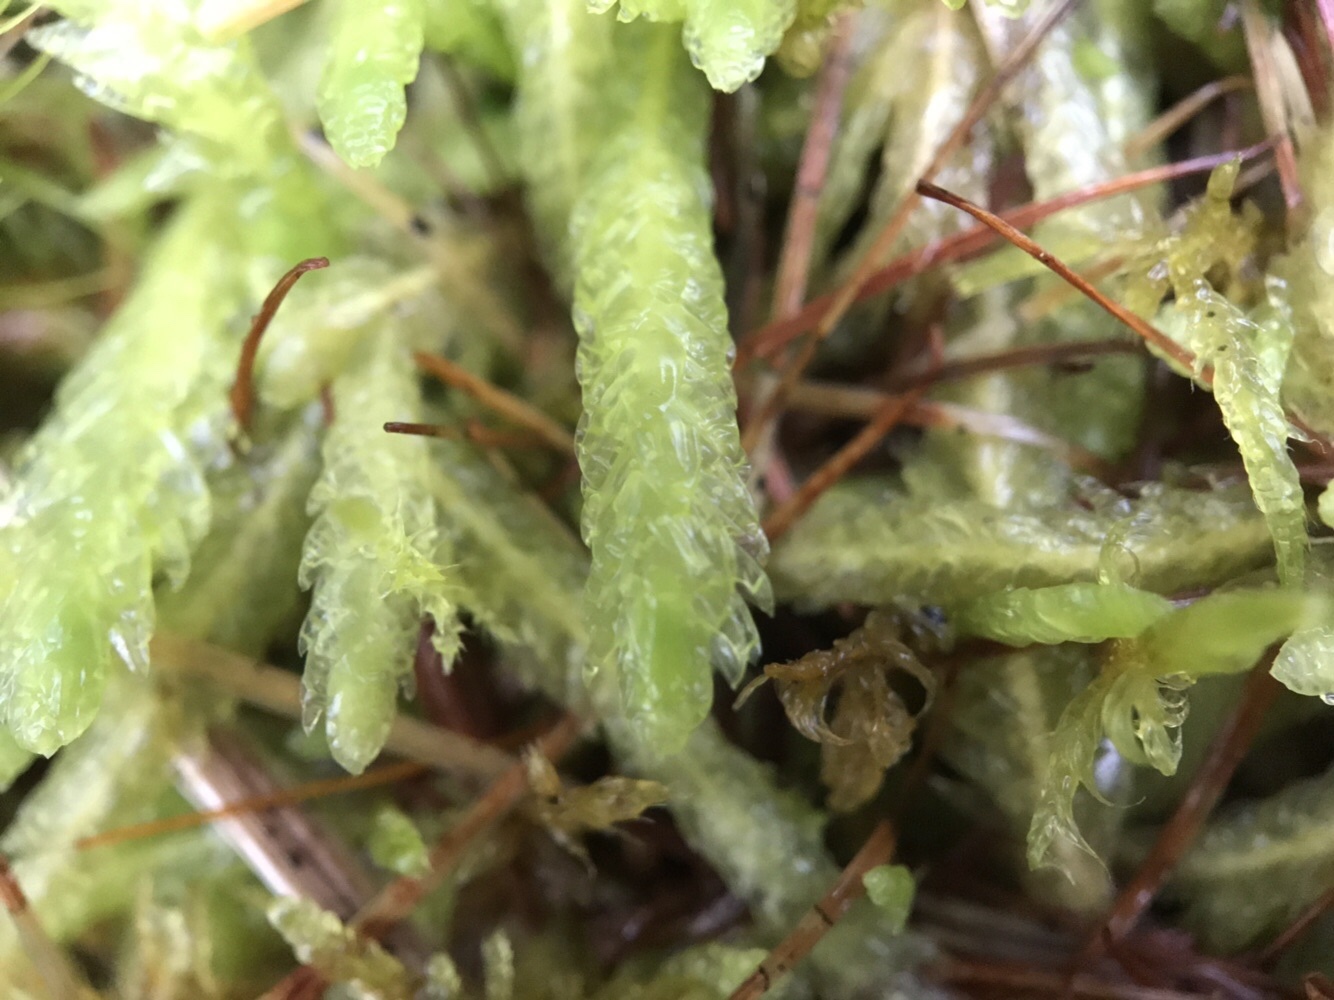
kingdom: Plantae
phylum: Bryophyta
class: Bryopsida
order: Hypnales
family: Plagiotheciaceae
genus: Plagiothecium
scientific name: Plagiothecium undulatum
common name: Waved silk-moss
